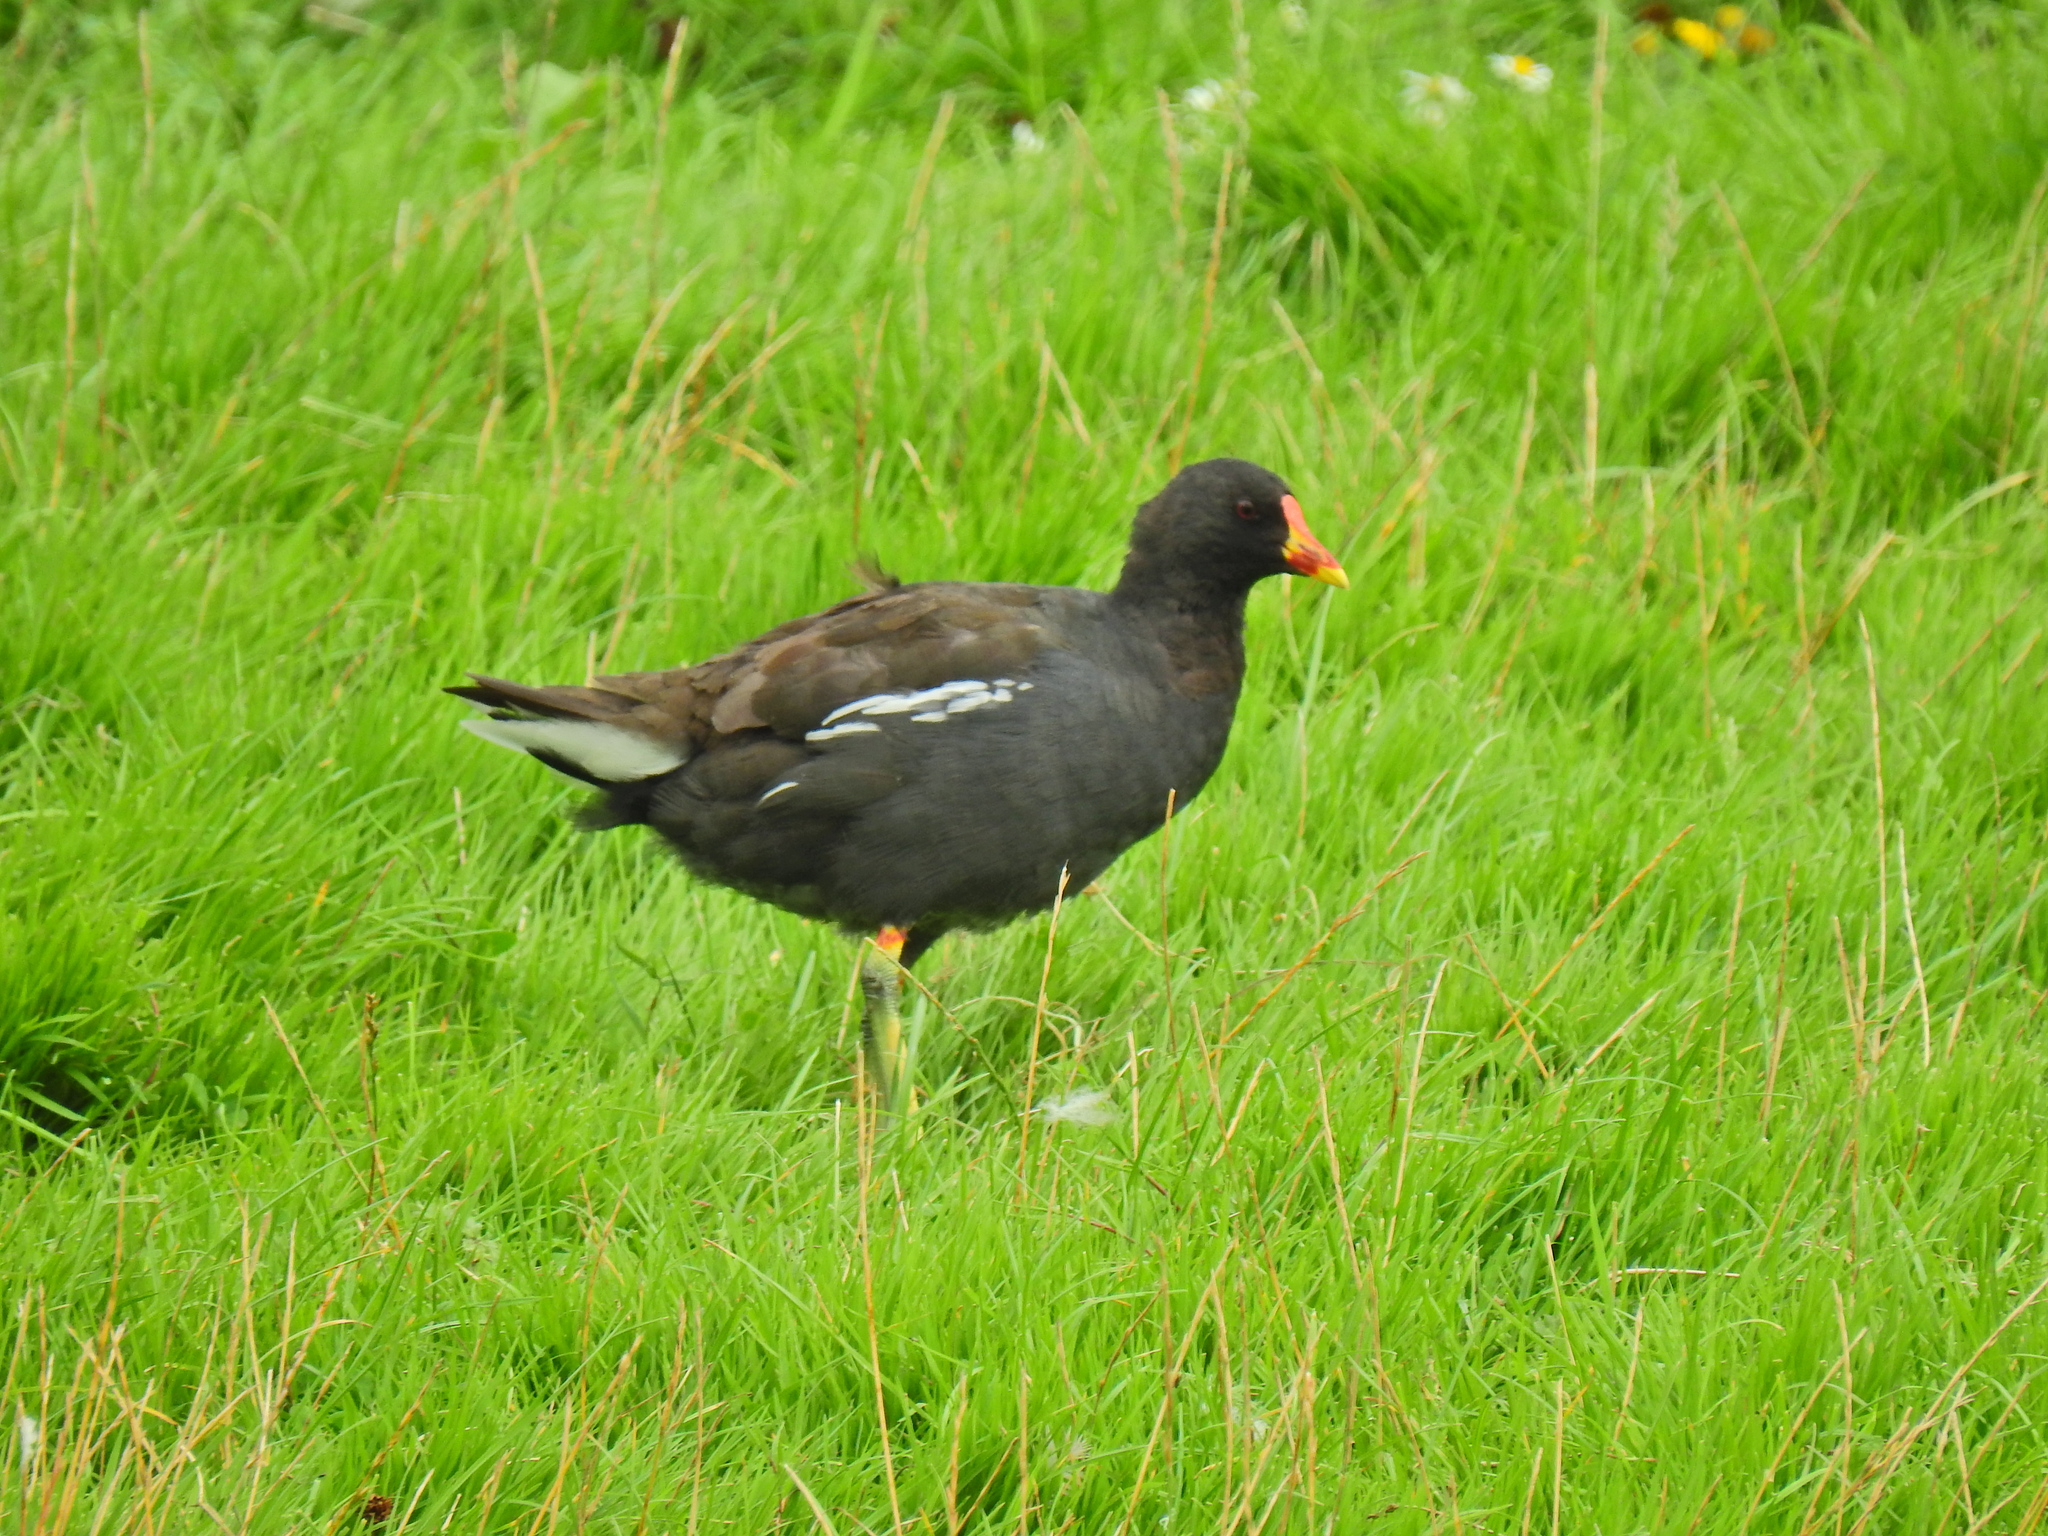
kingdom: Animalia
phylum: Chordata
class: Aves
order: Gruiformes
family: Rallidae
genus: Gallinula
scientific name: Gallinula chloropus
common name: Common moorhen
